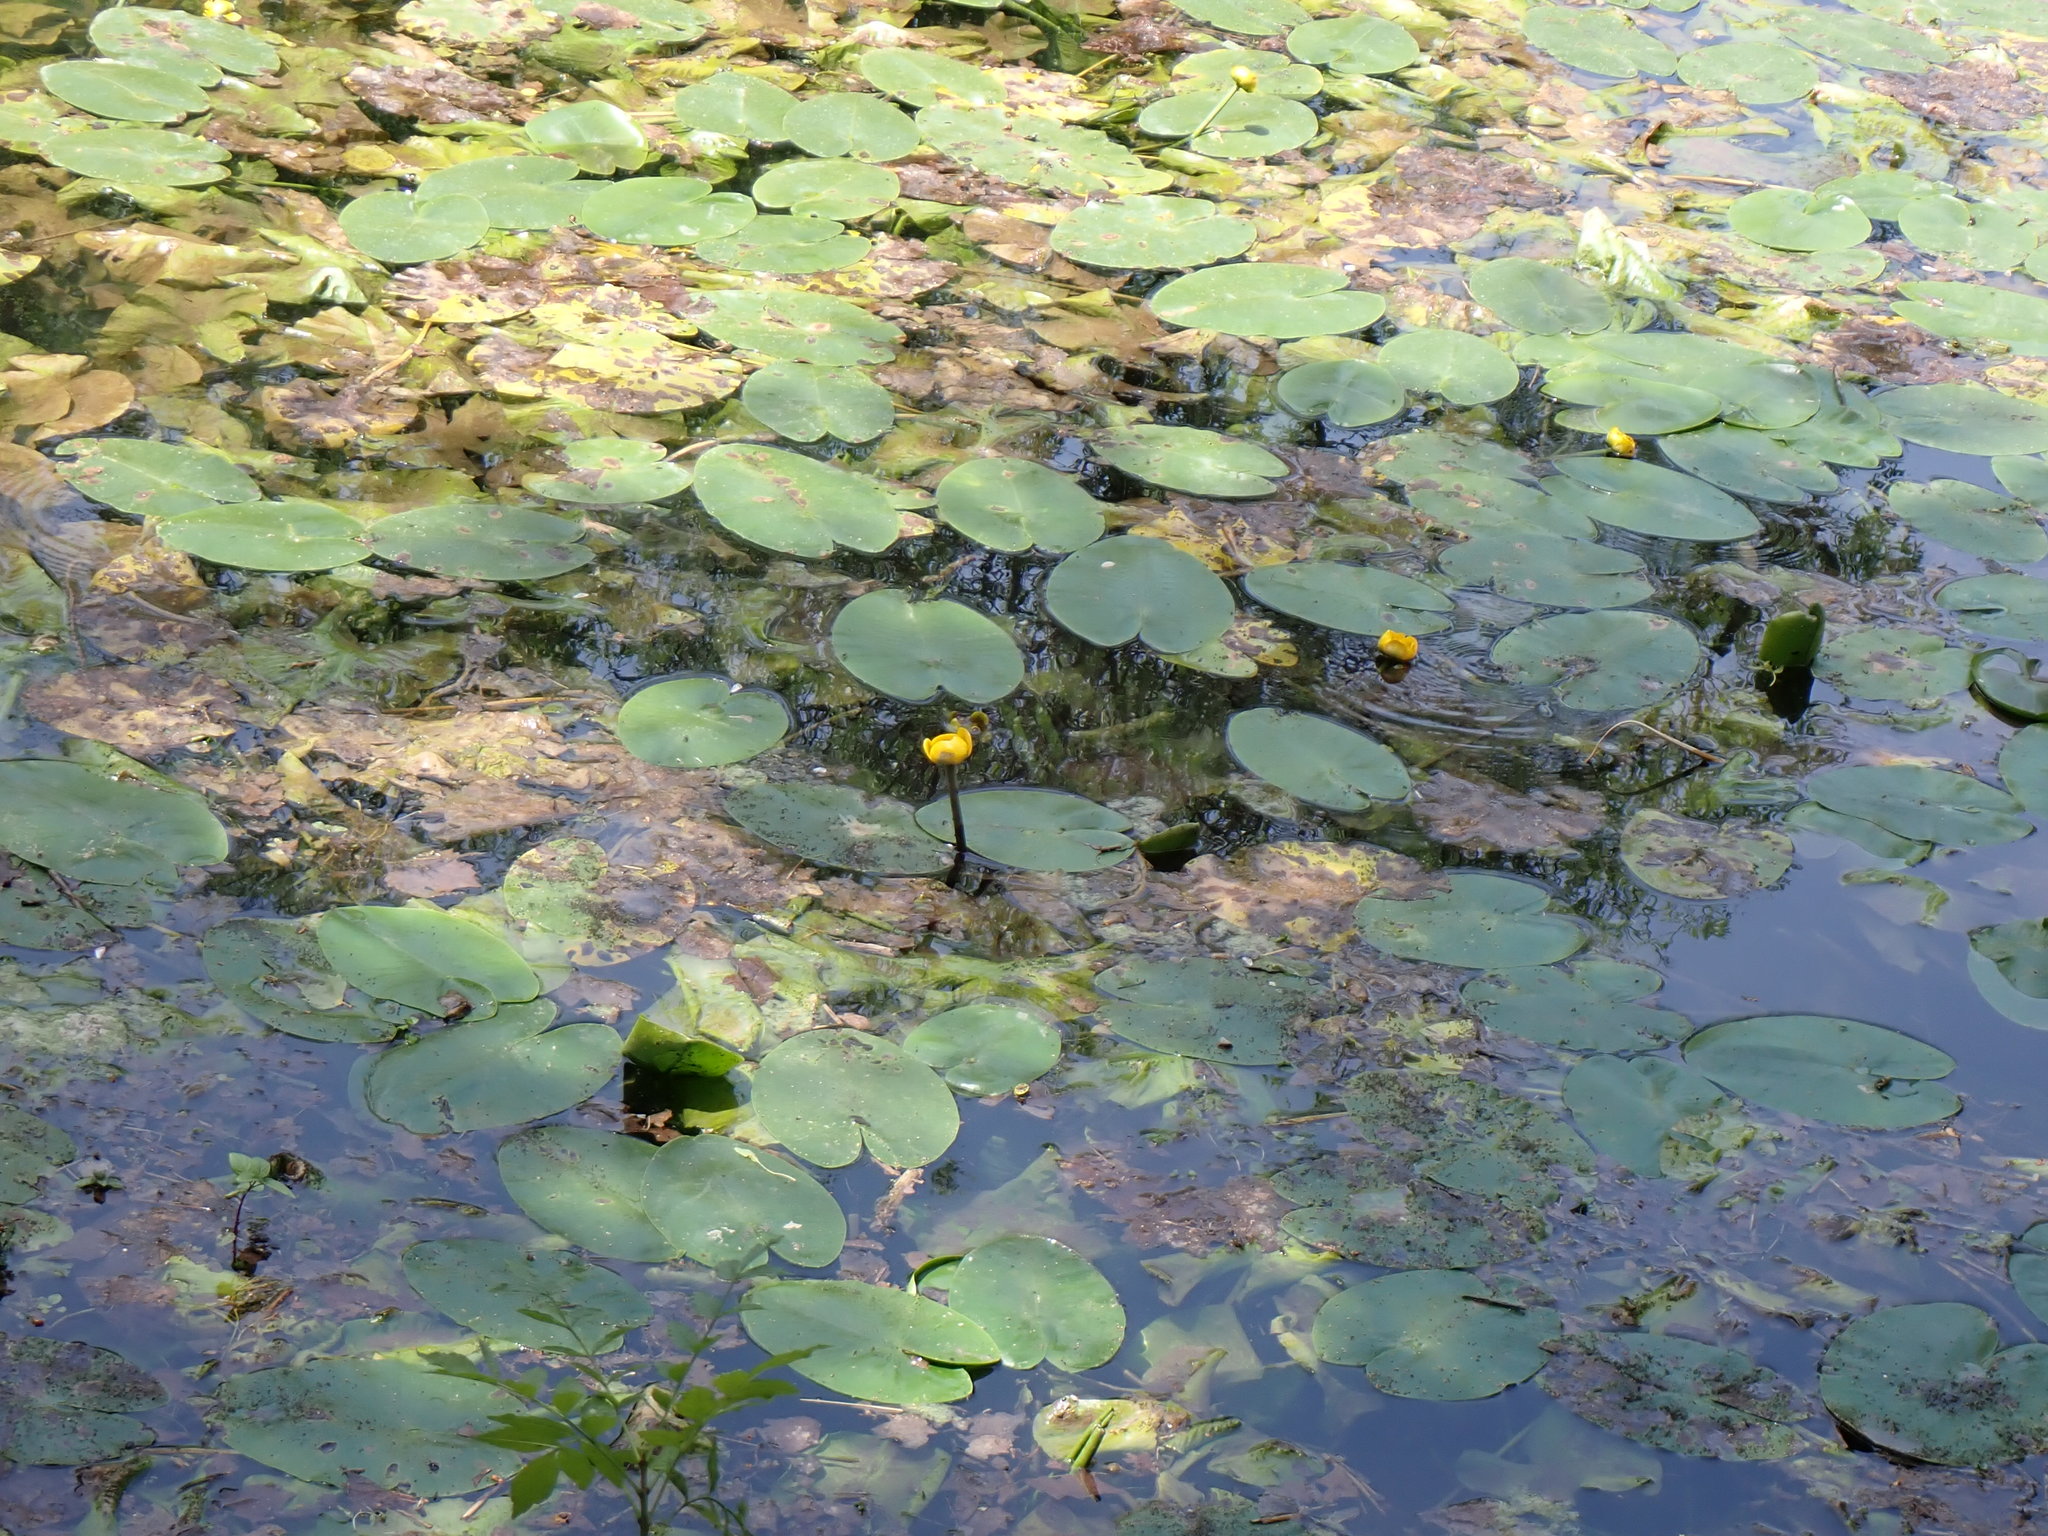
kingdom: Plantae
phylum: Tracheophyta
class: Magnoliopsida
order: Nymphaeales
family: Nymphaeaceae
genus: Nuphar
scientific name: Nuphar lutea
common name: Yellow water-lily
